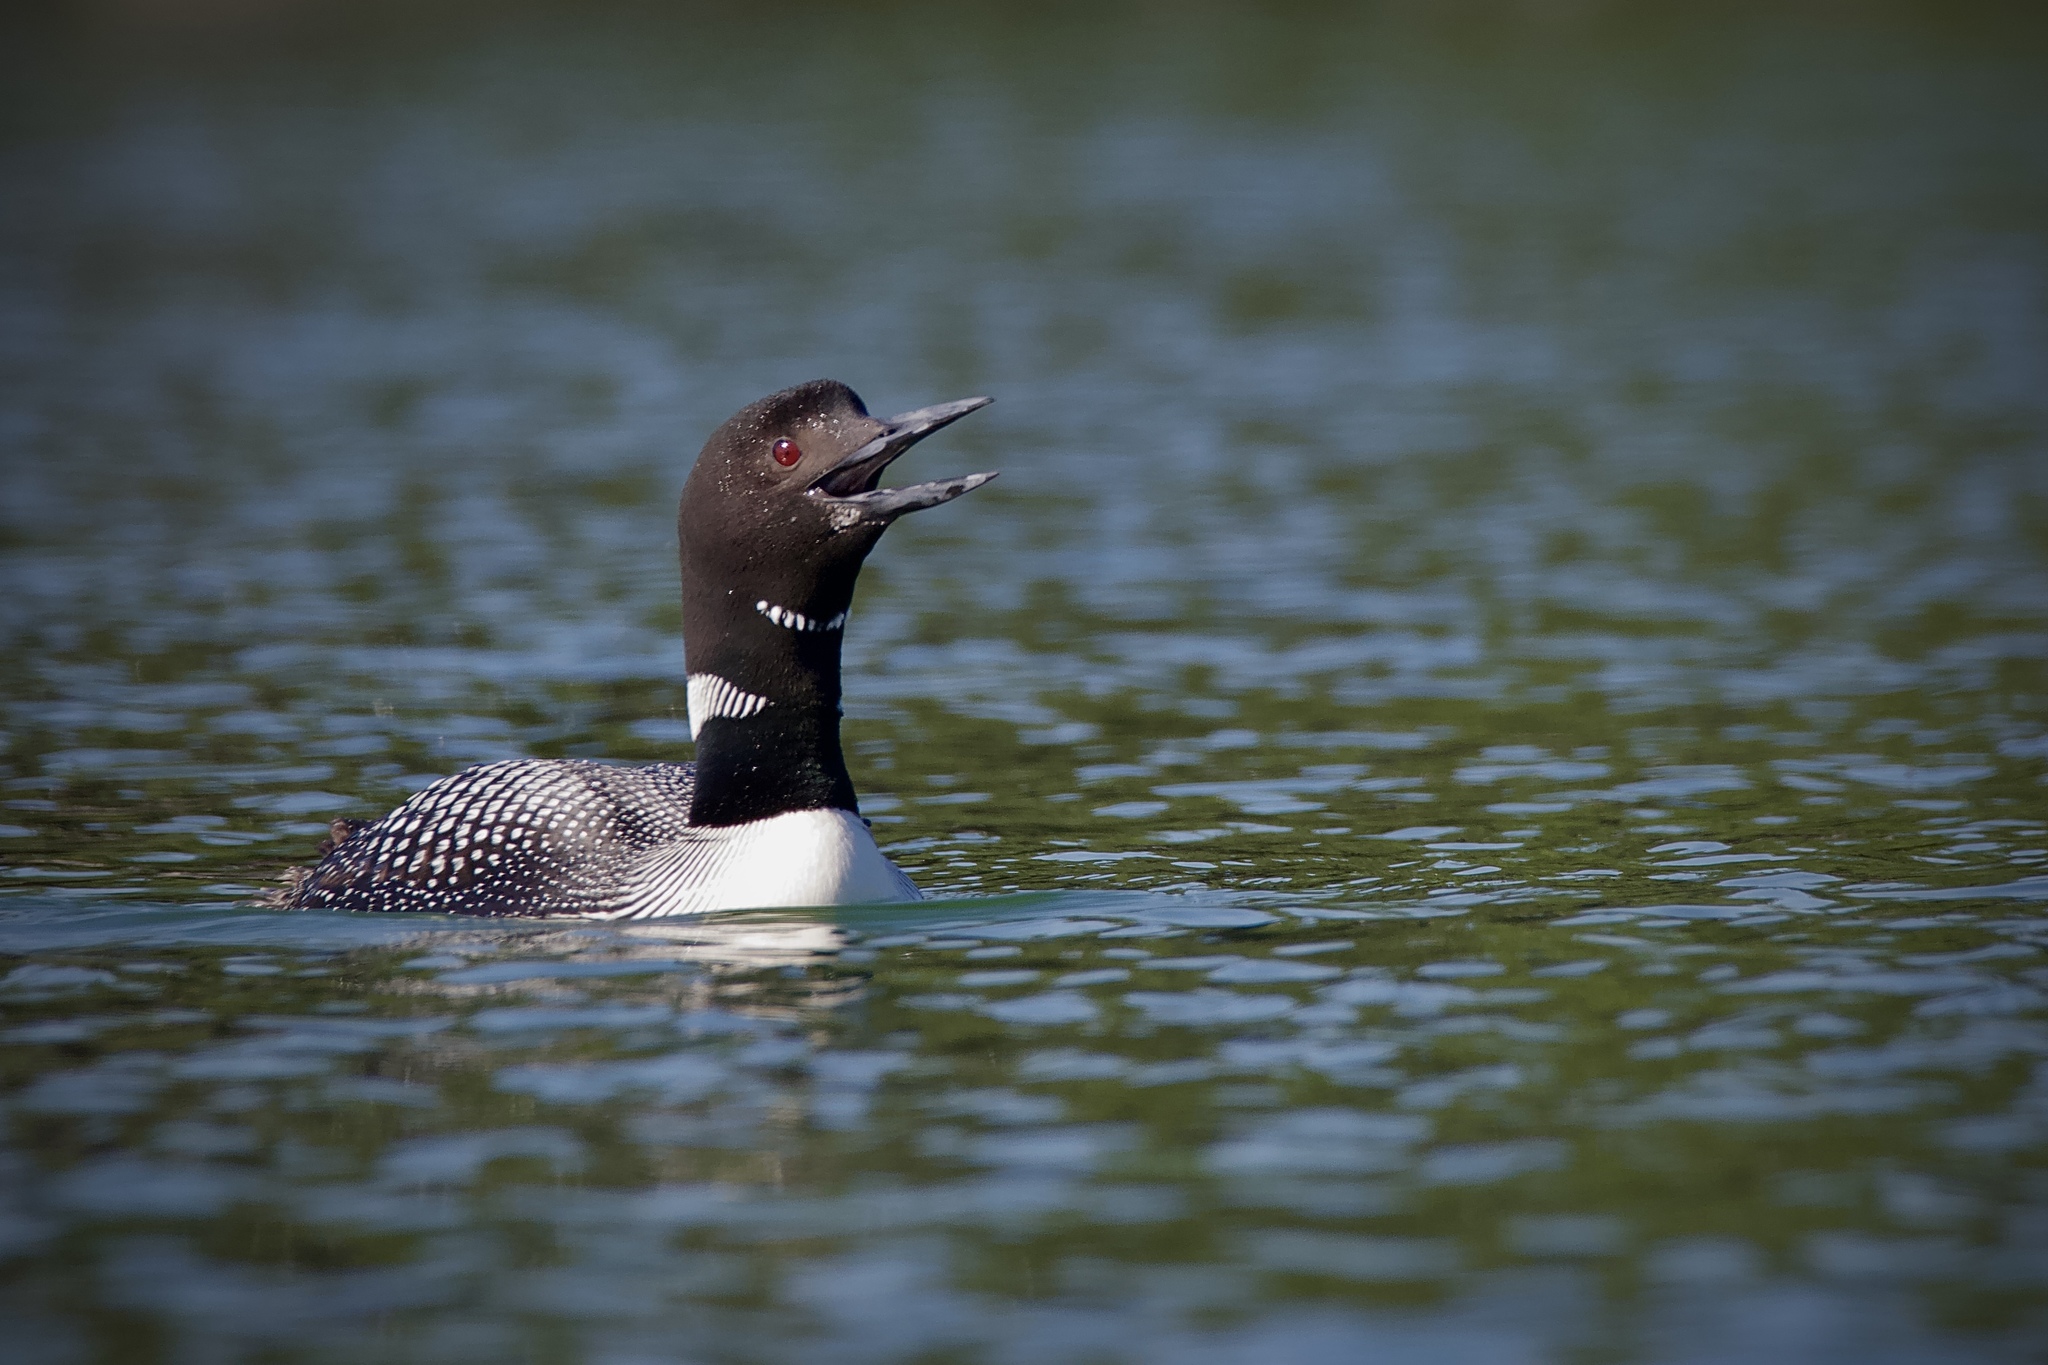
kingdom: Animalia
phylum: Chordata
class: Aves
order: Gaviiformes
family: Gaviidae
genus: Gavia
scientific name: Gavia immer
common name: Common loon
